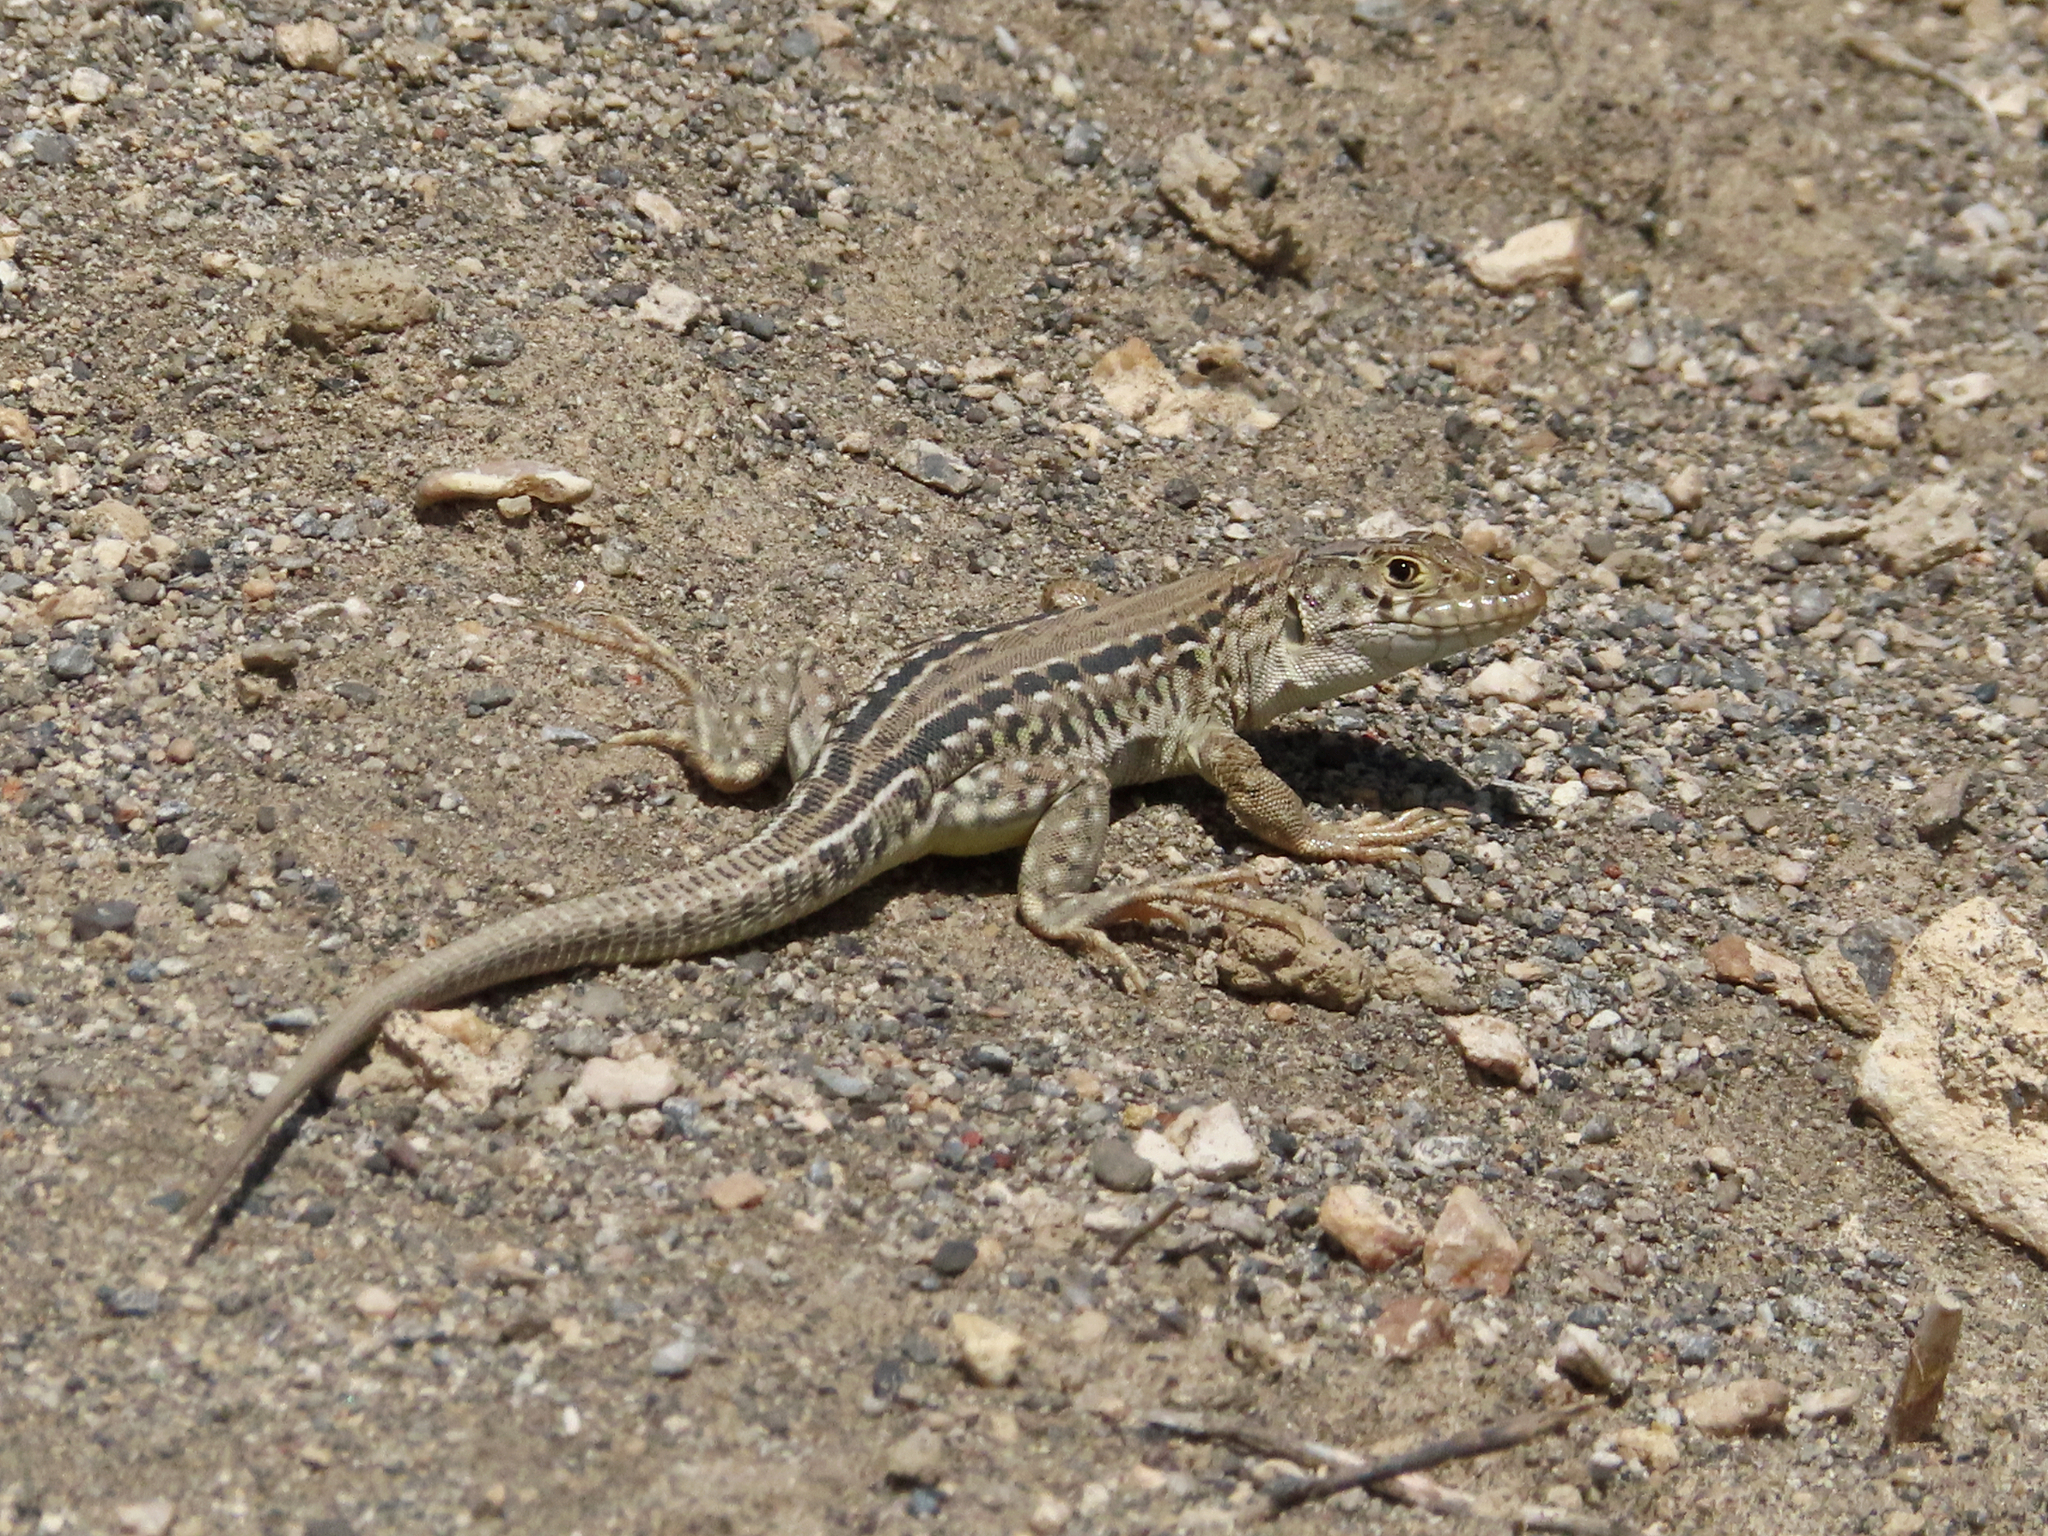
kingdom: Animalia
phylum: Chordata
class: Squamata
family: Lacertidae
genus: Eremias
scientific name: Eremias strauchi
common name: Strauch's racerunner
